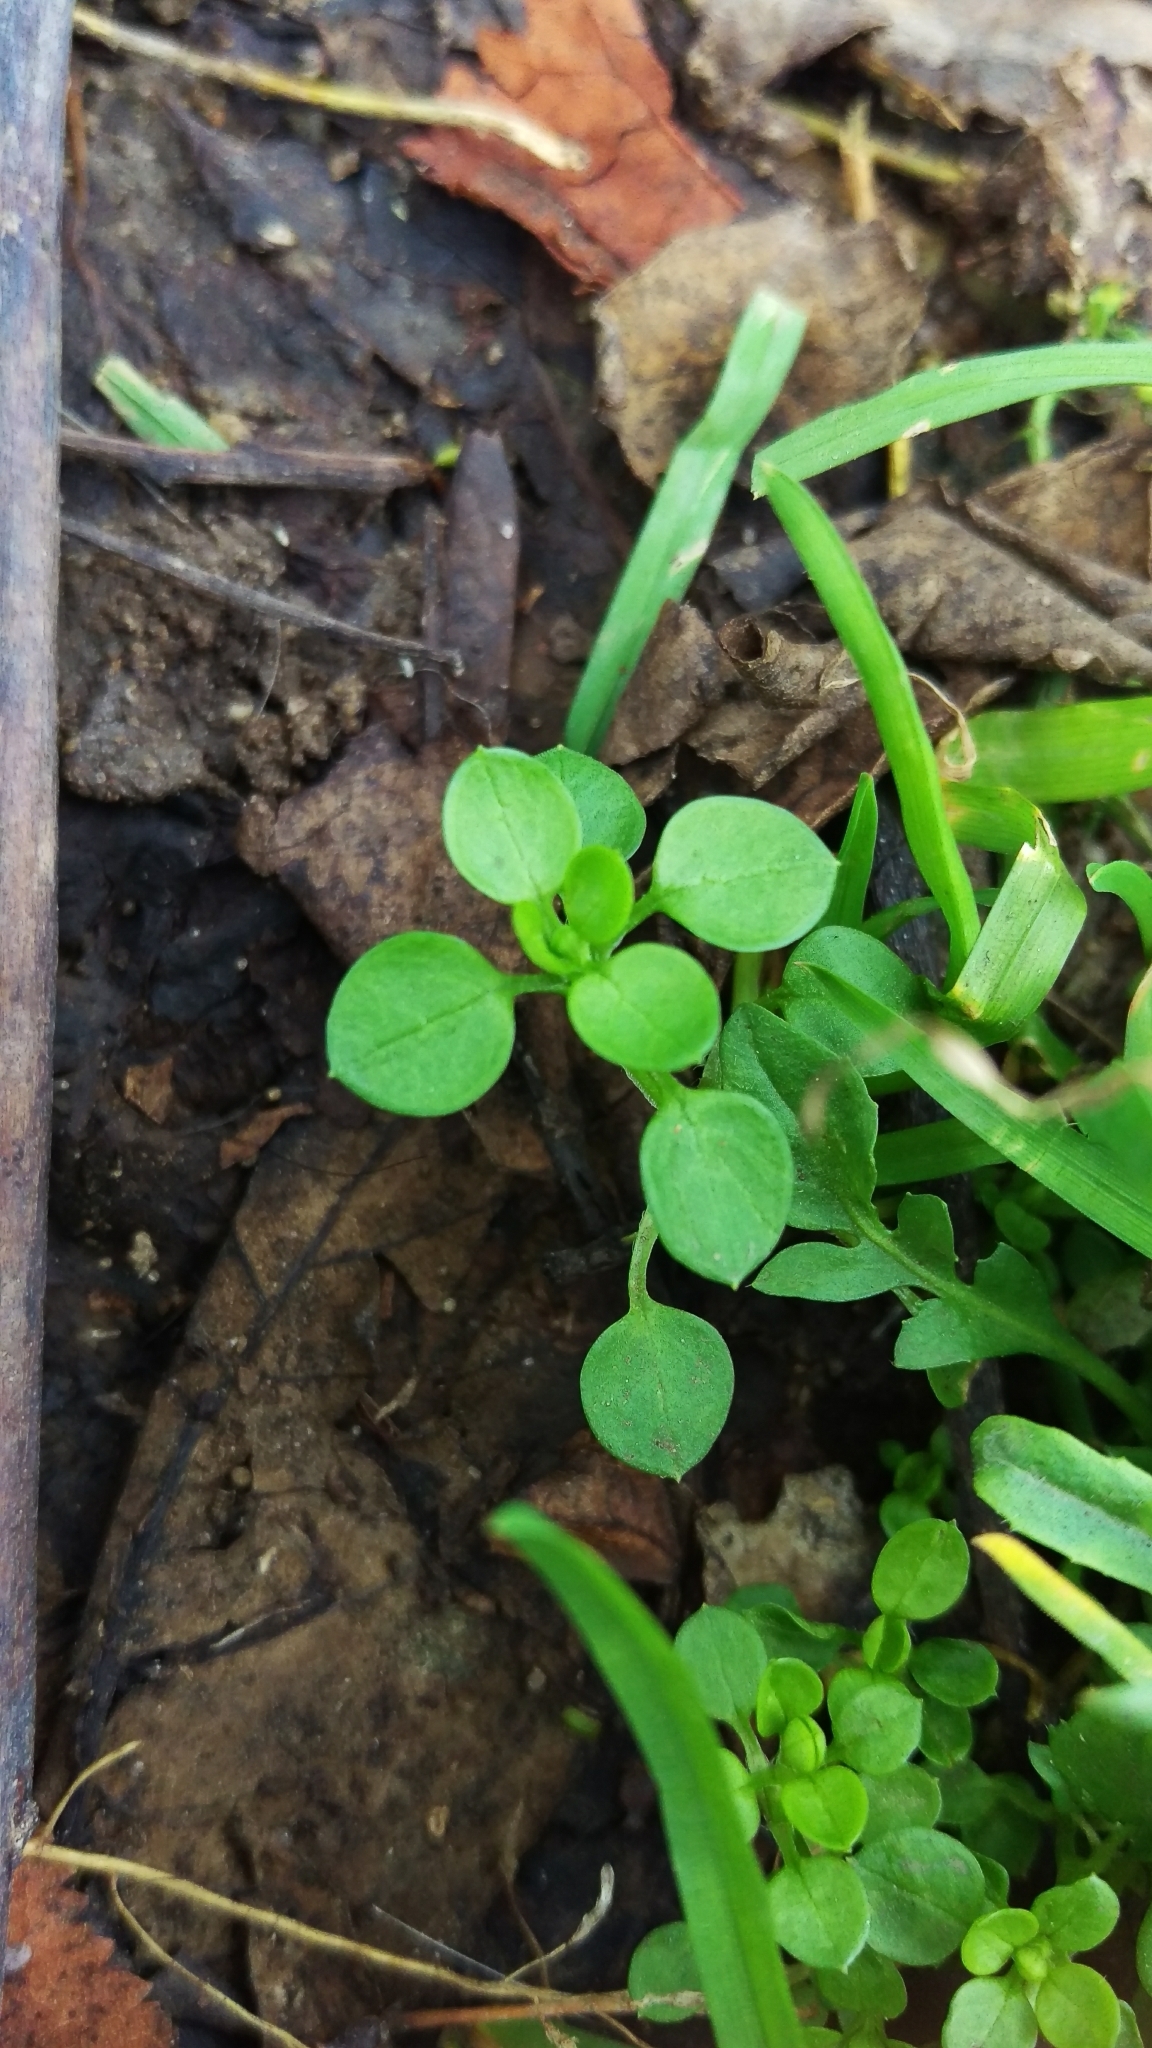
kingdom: Plantae
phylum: Tracheophyta
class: Magnoliopsida
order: Caryophyllales
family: Caryophyllaceae
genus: Stellaria
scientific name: Stellaria media
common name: Common chickweed
